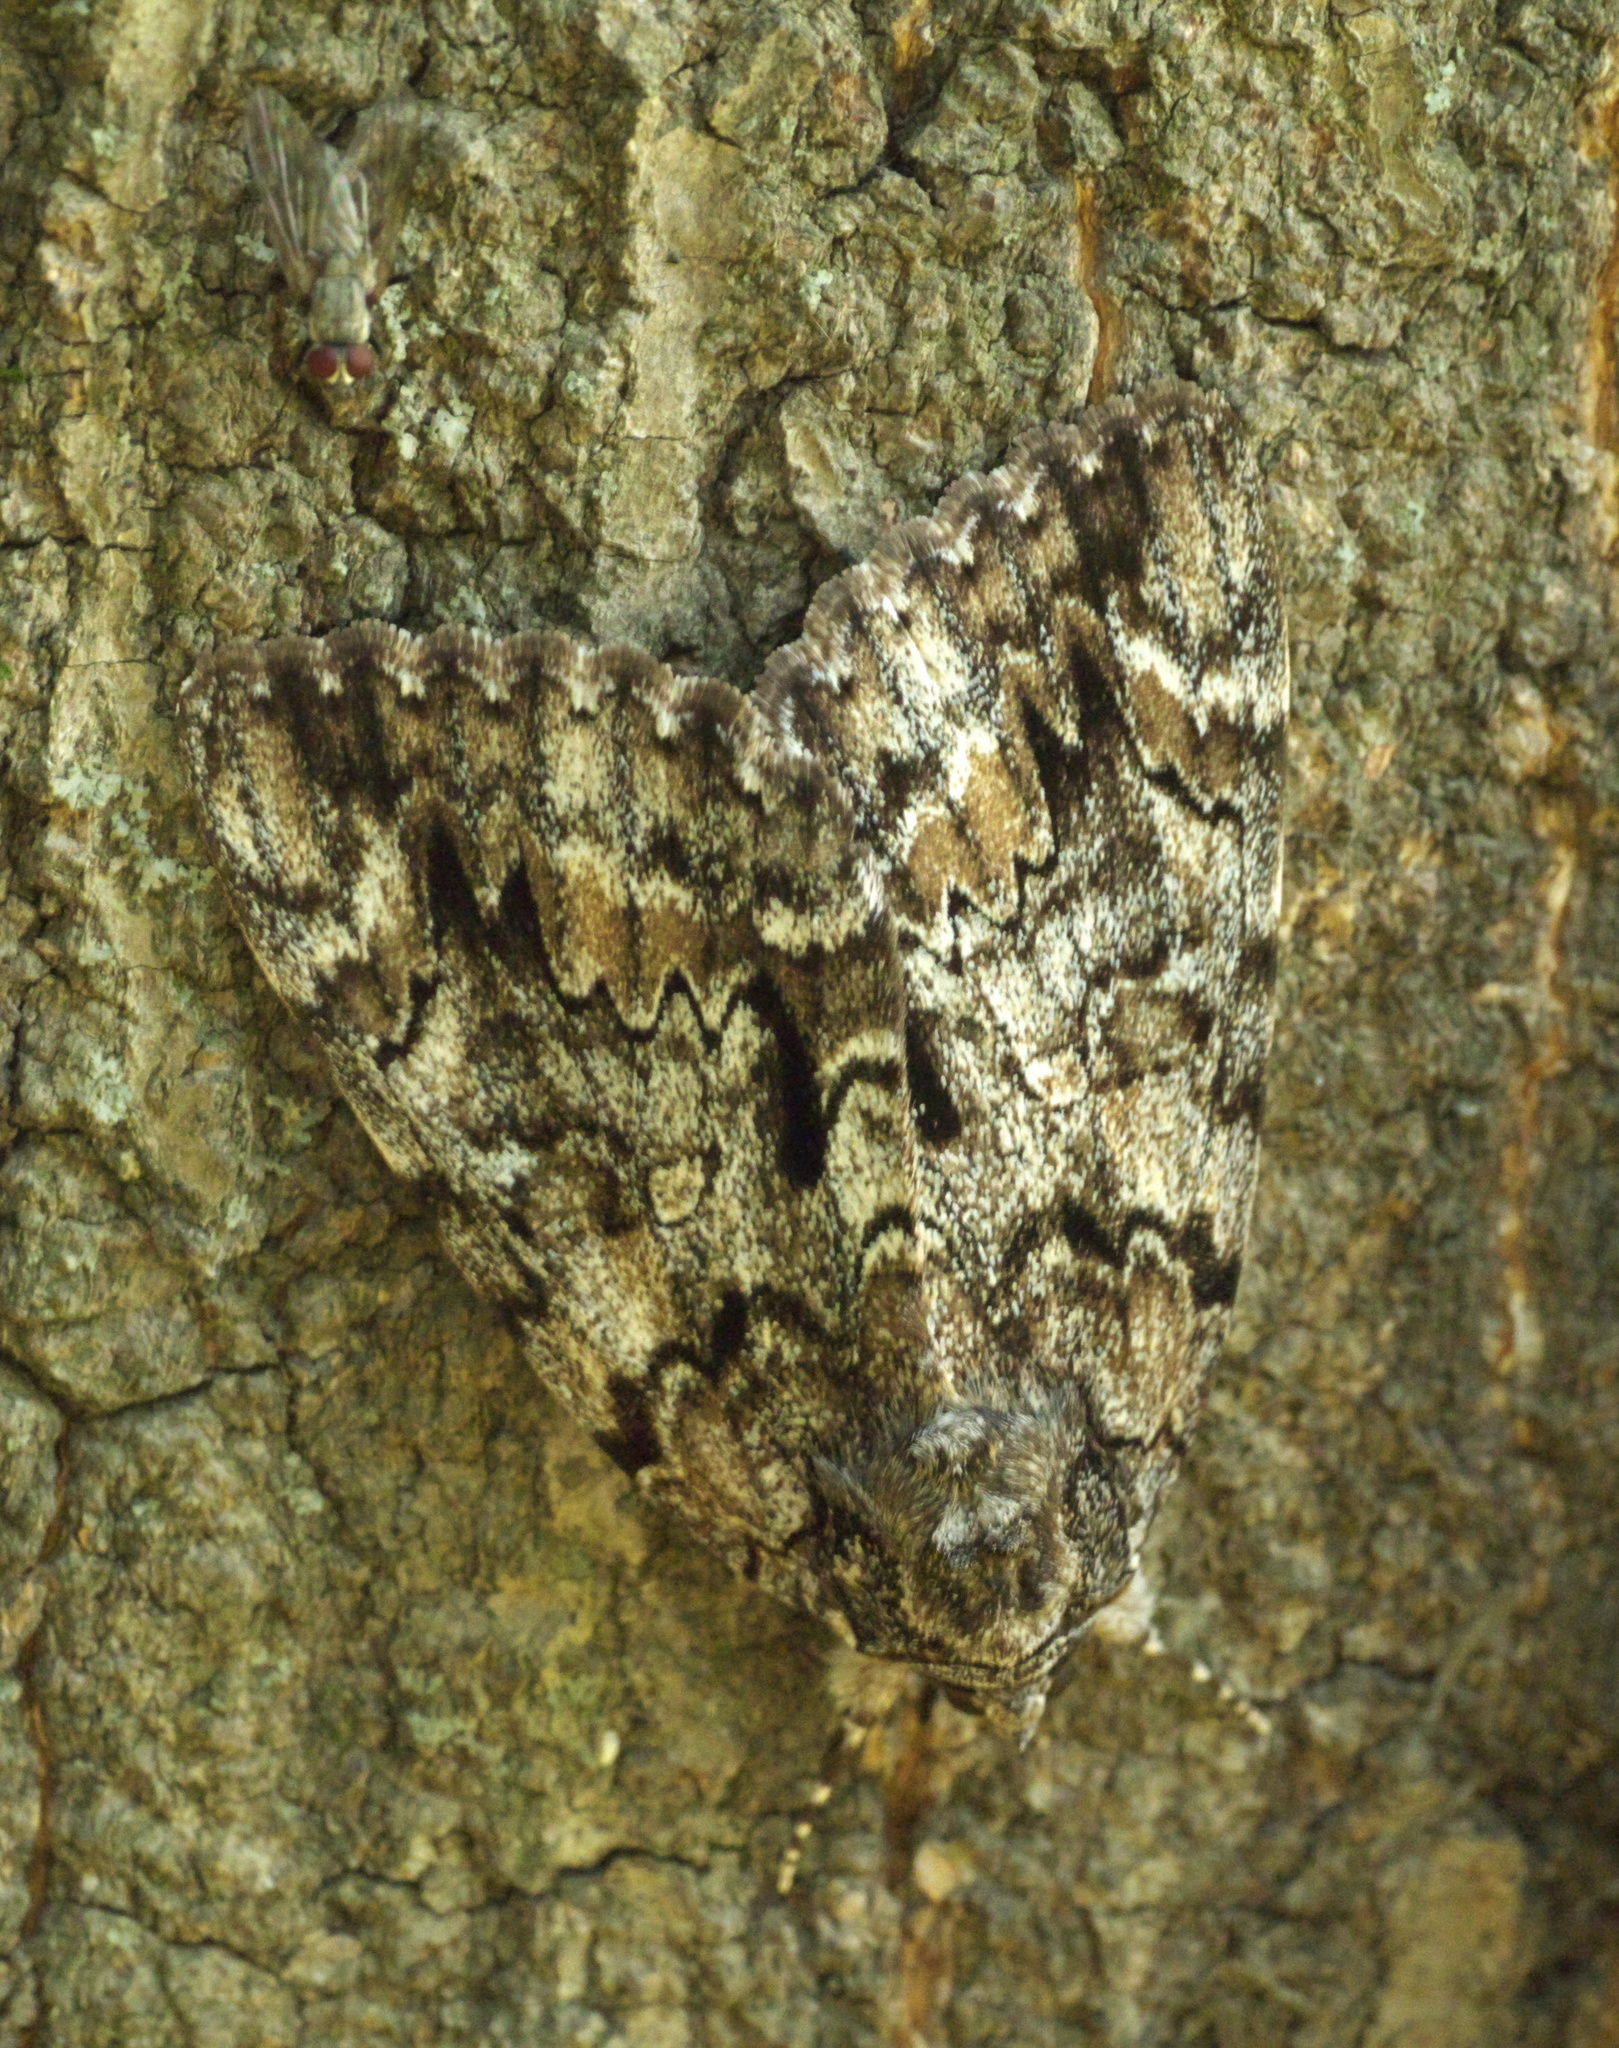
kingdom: Animalia
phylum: Arthropoda
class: Insecta
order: Lepidoptera
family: Erebidae
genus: Catocala
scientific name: Catocala lacrymosa
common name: Tearful underwing
